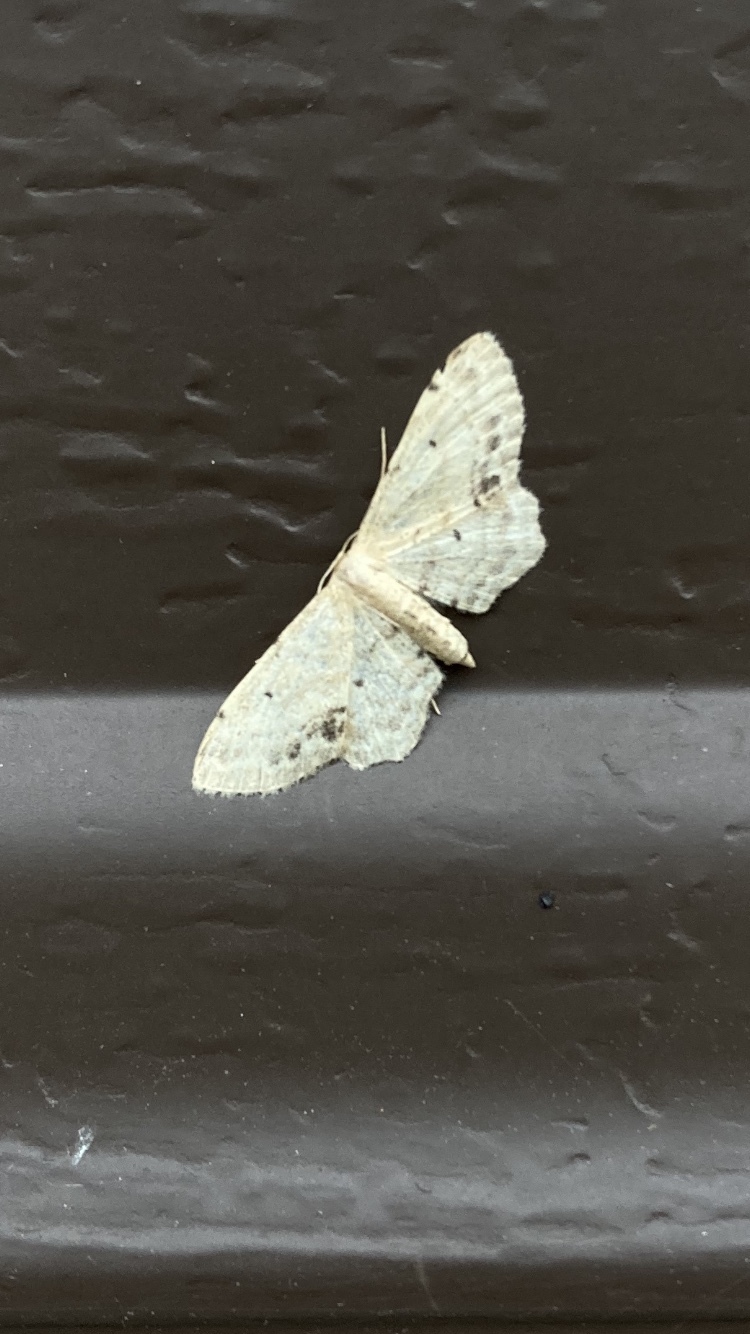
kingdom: Animalia
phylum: Arthropoda
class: Insecta
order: Lepidoptera
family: Geometridae
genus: Idaea
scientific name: Idaea dimidiata
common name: Single-dotted wave
